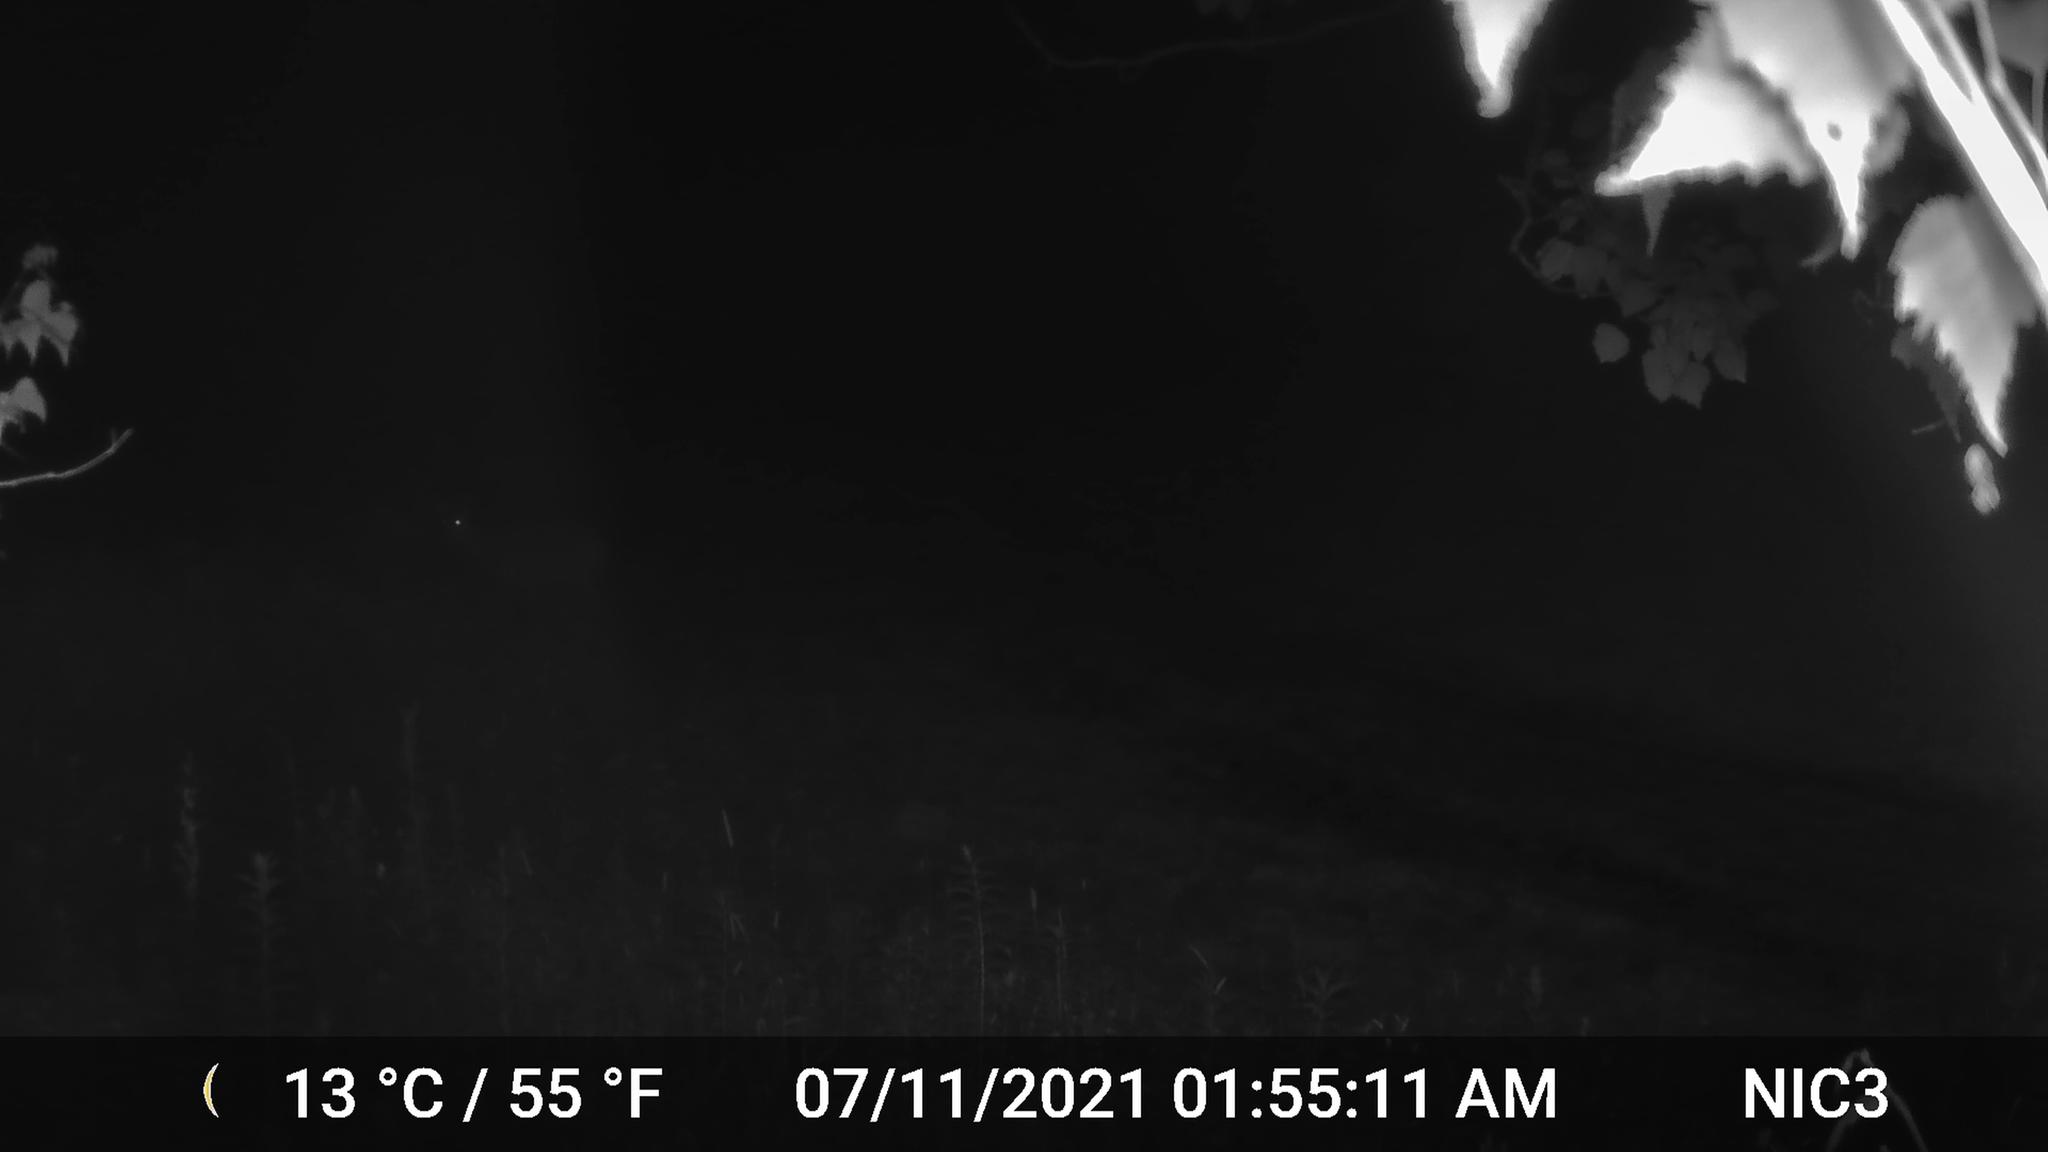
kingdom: Animalia
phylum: Chordata
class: Mammalia
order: Artiodactyla
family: Cervidae
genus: Odocoileus
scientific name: Odocoileus virginianus
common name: White-tailed deer
